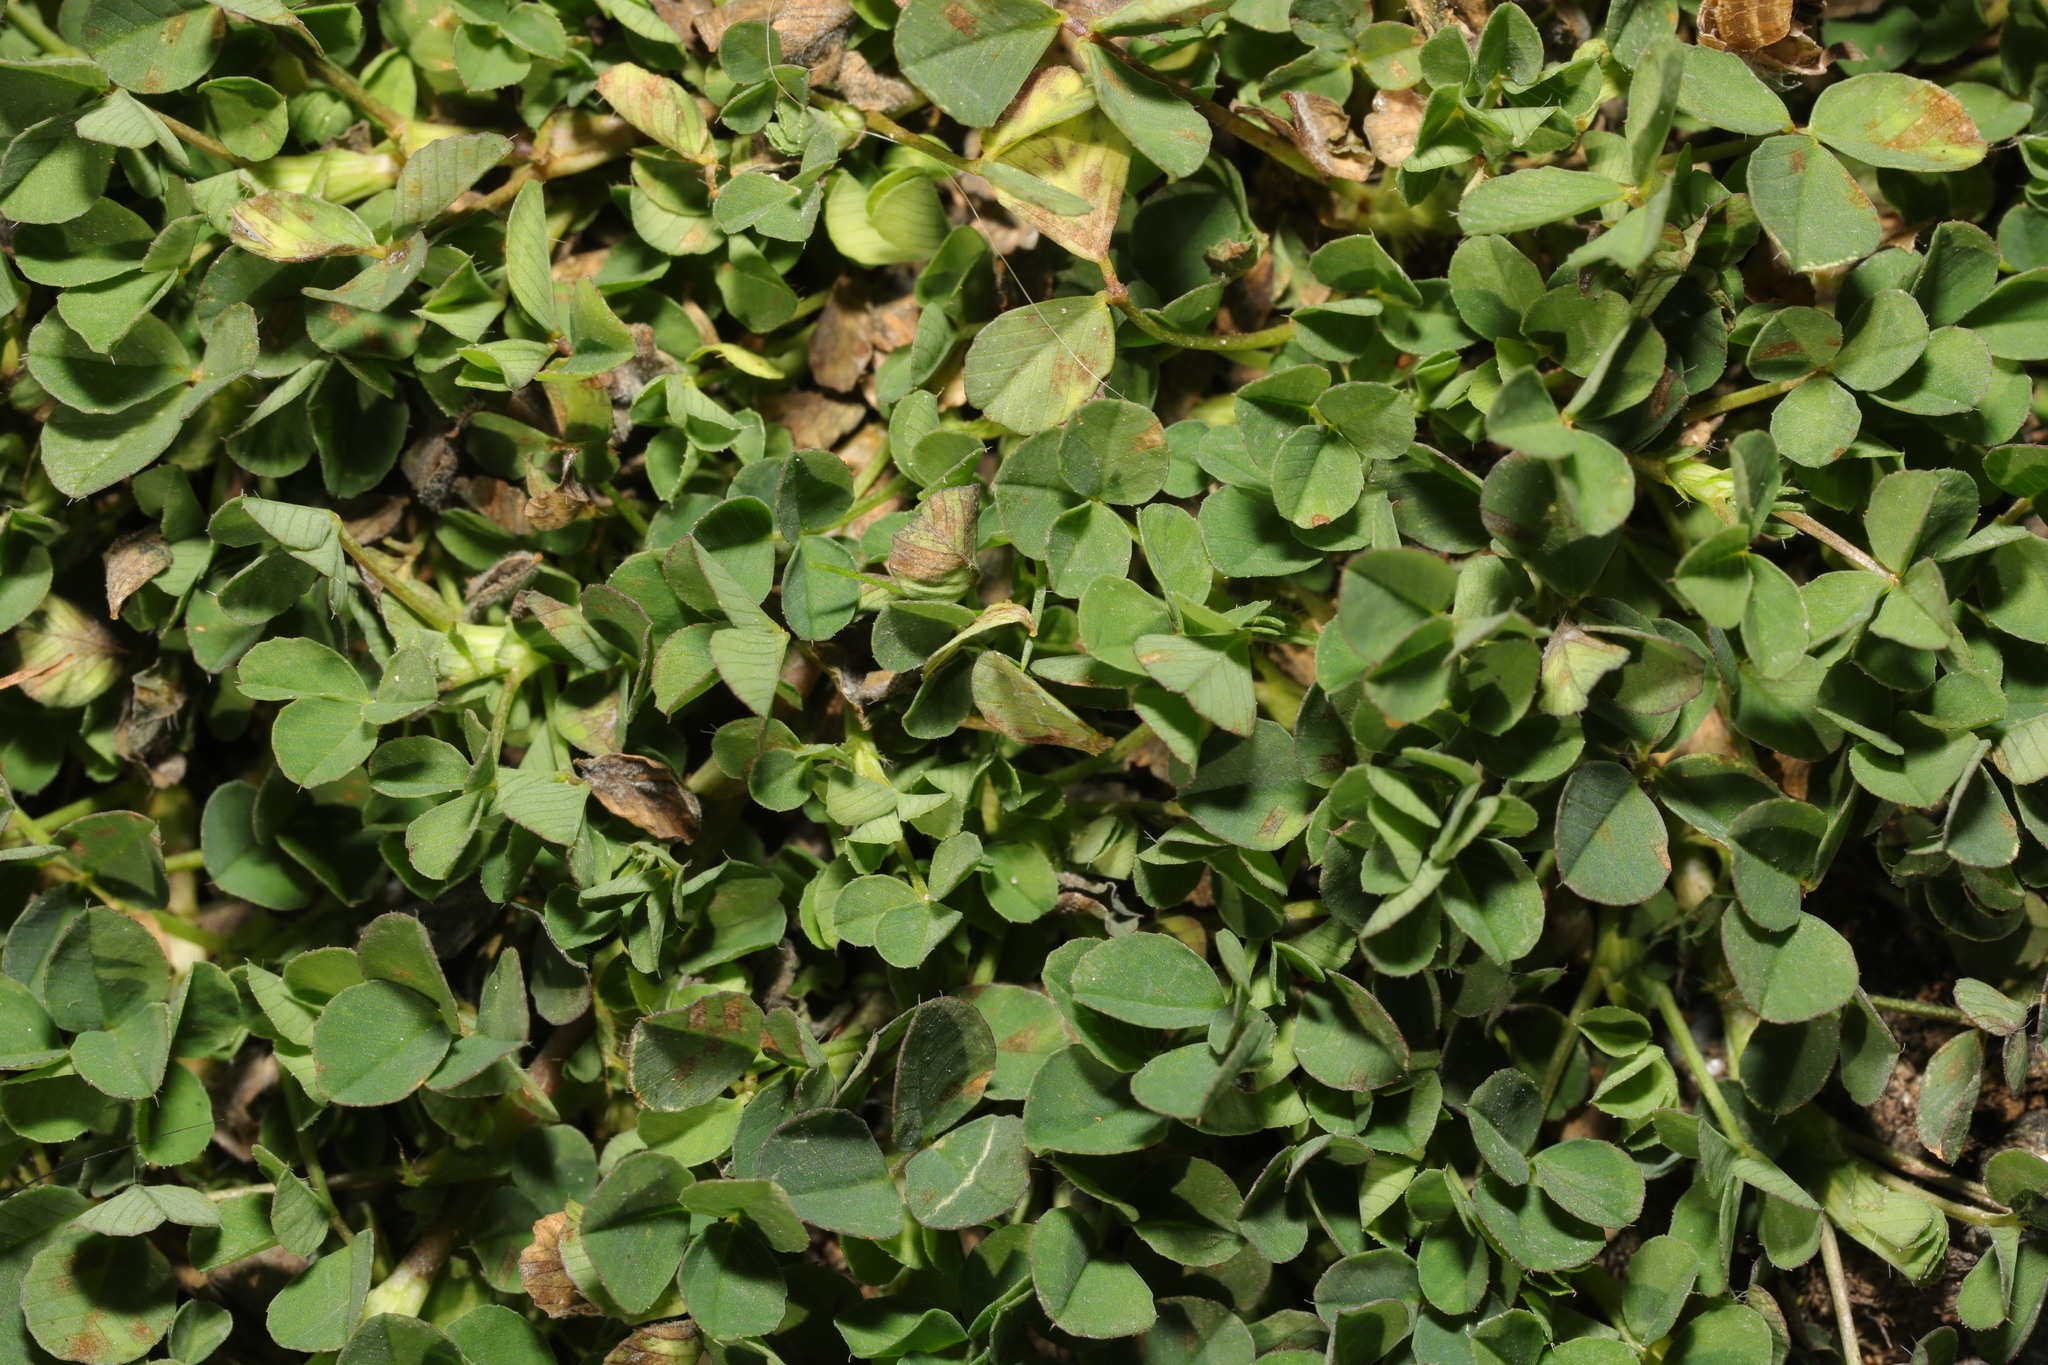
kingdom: Plantae
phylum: Tracheophyta
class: Magnoliopsida
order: Fabales
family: Fabaceae
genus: Trifolium
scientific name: Trifolium repens
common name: White clover
